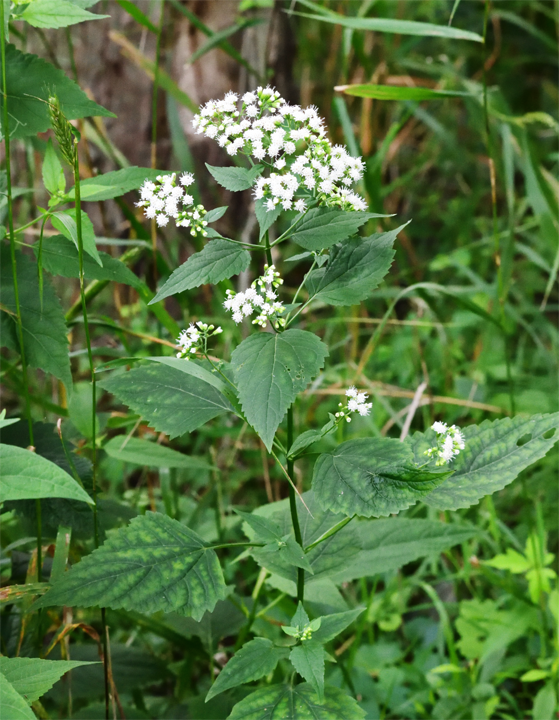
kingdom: Plantae
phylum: Tracheophyta
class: Magnoliopsida
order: Asterales
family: Asteraceae
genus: Ageratina
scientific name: Ageratina altissima
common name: White snakeroot
